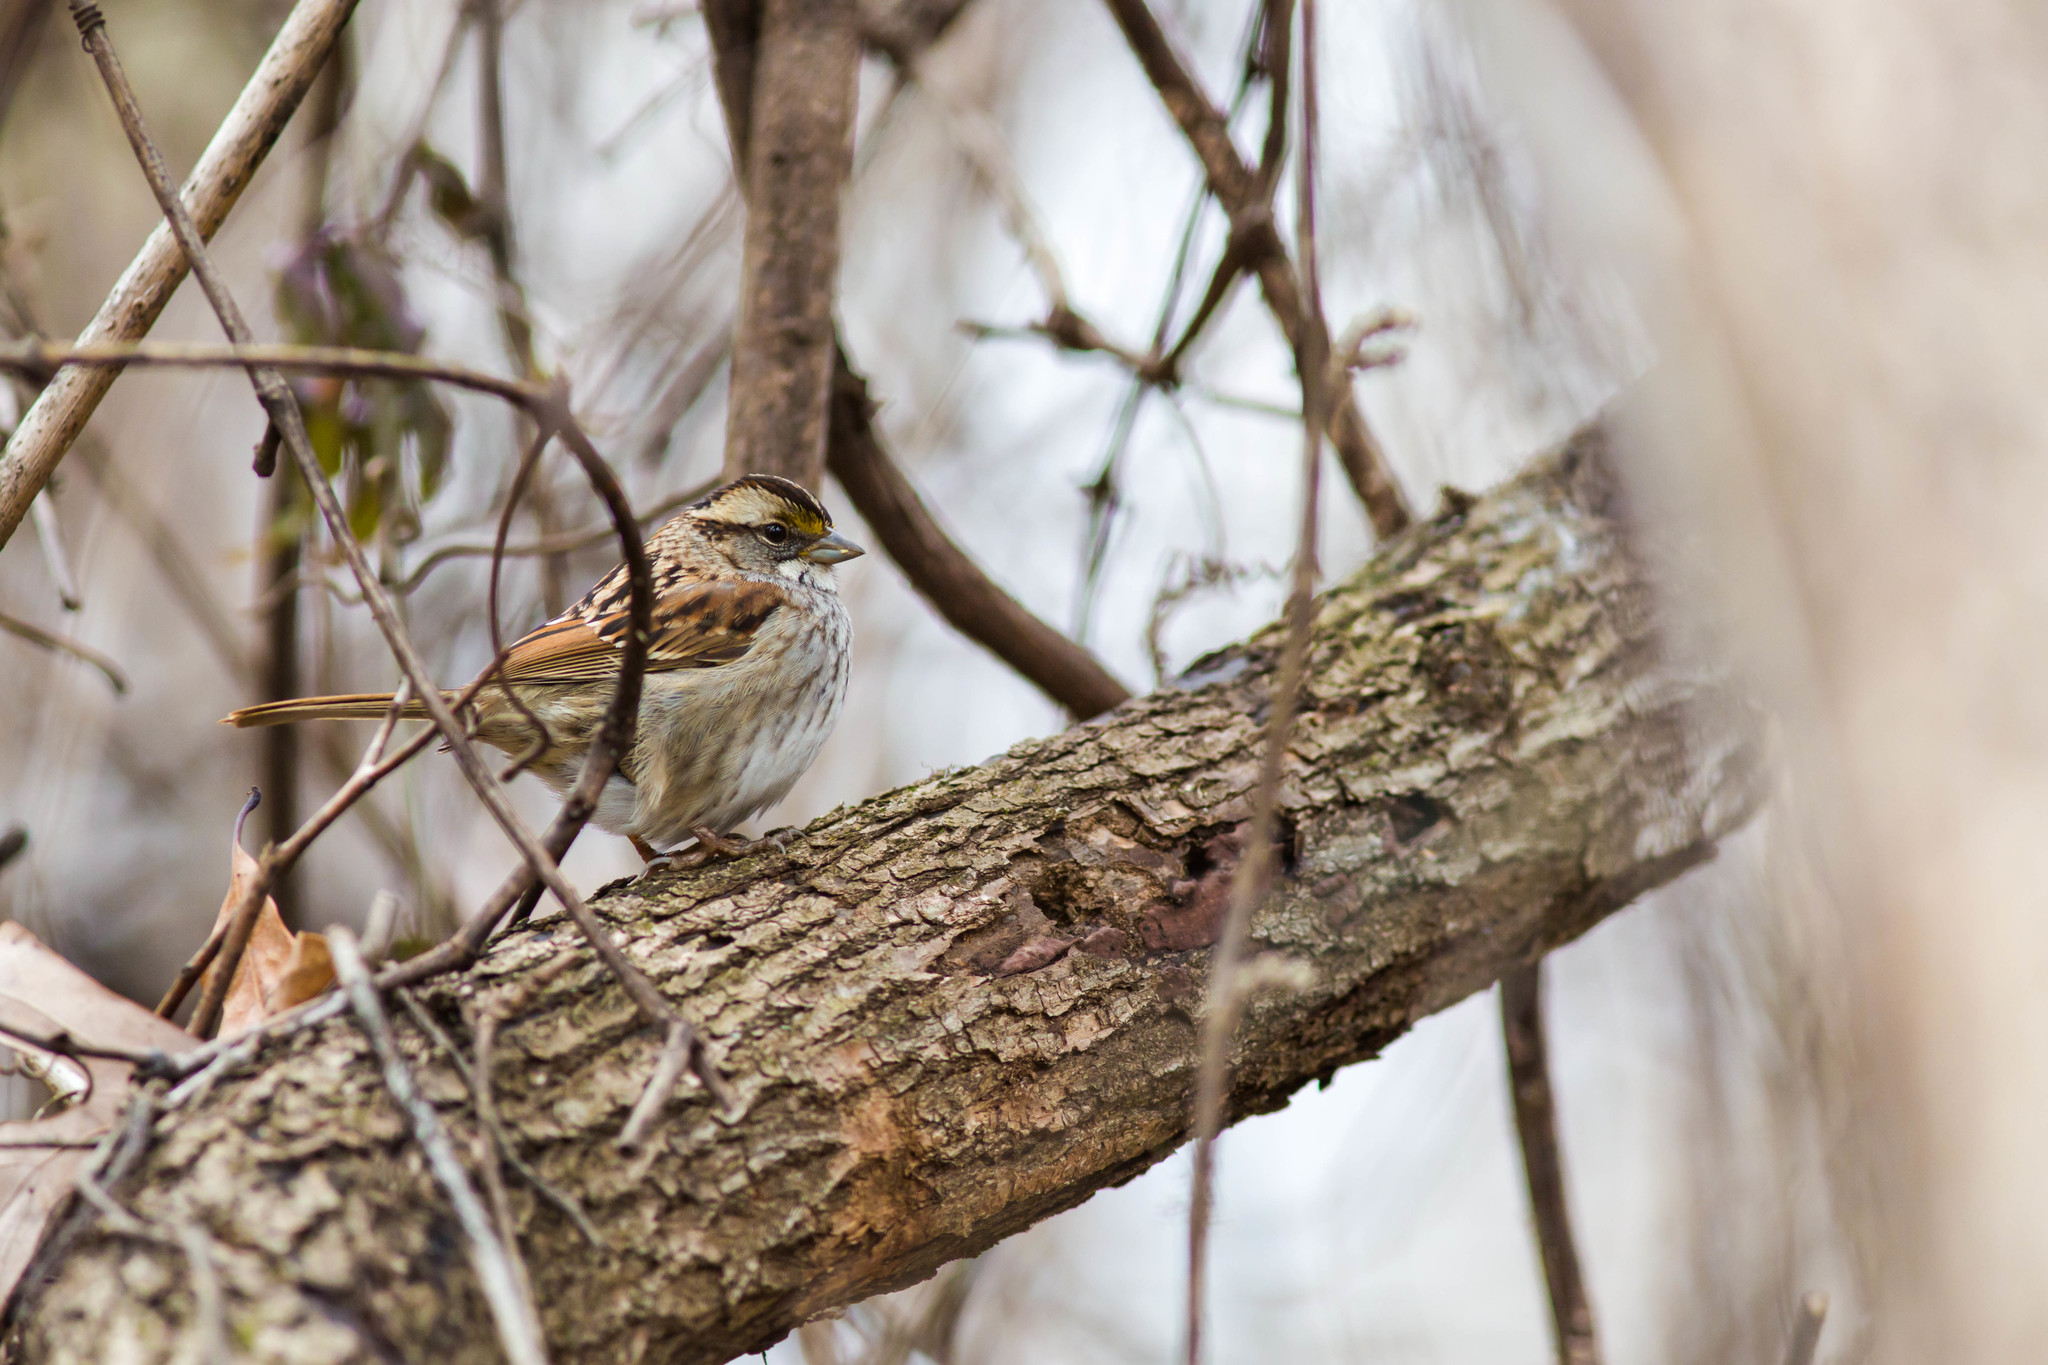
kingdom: Animalia
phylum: Chordata
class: Aves
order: Passeriformes
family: Passerellidae
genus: Zonotrichia
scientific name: Zonotrichia albicollis
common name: White-throated sparrow
